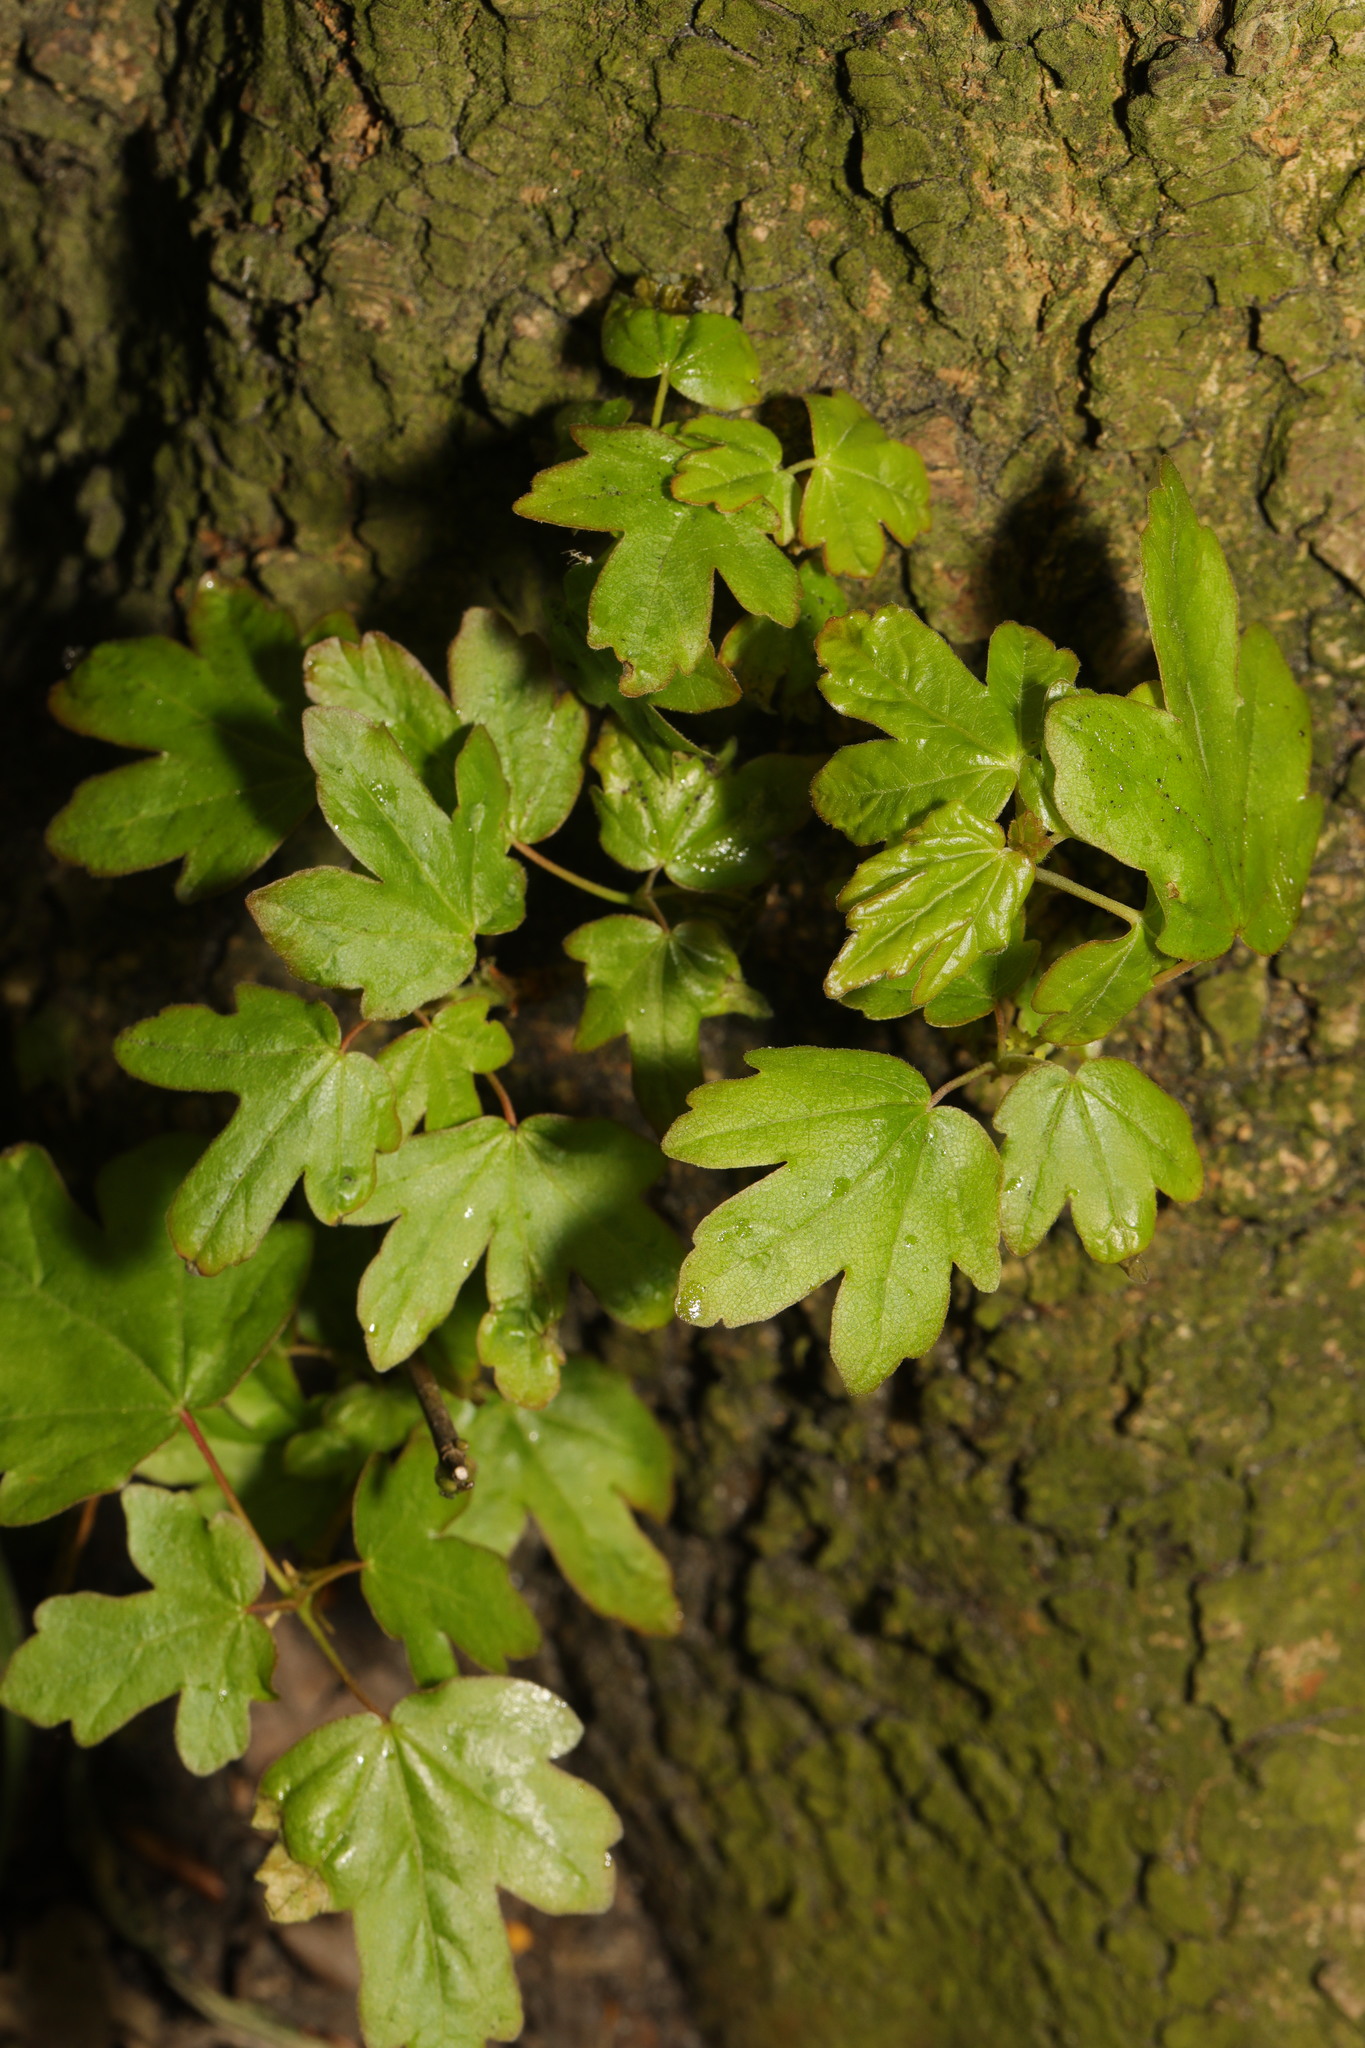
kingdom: Plantae
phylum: Tracheophyta
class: Magnoliopsida
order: Sapindales
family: Sapindaceae
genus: Acer
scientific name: Acer campestre
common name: Field maple
